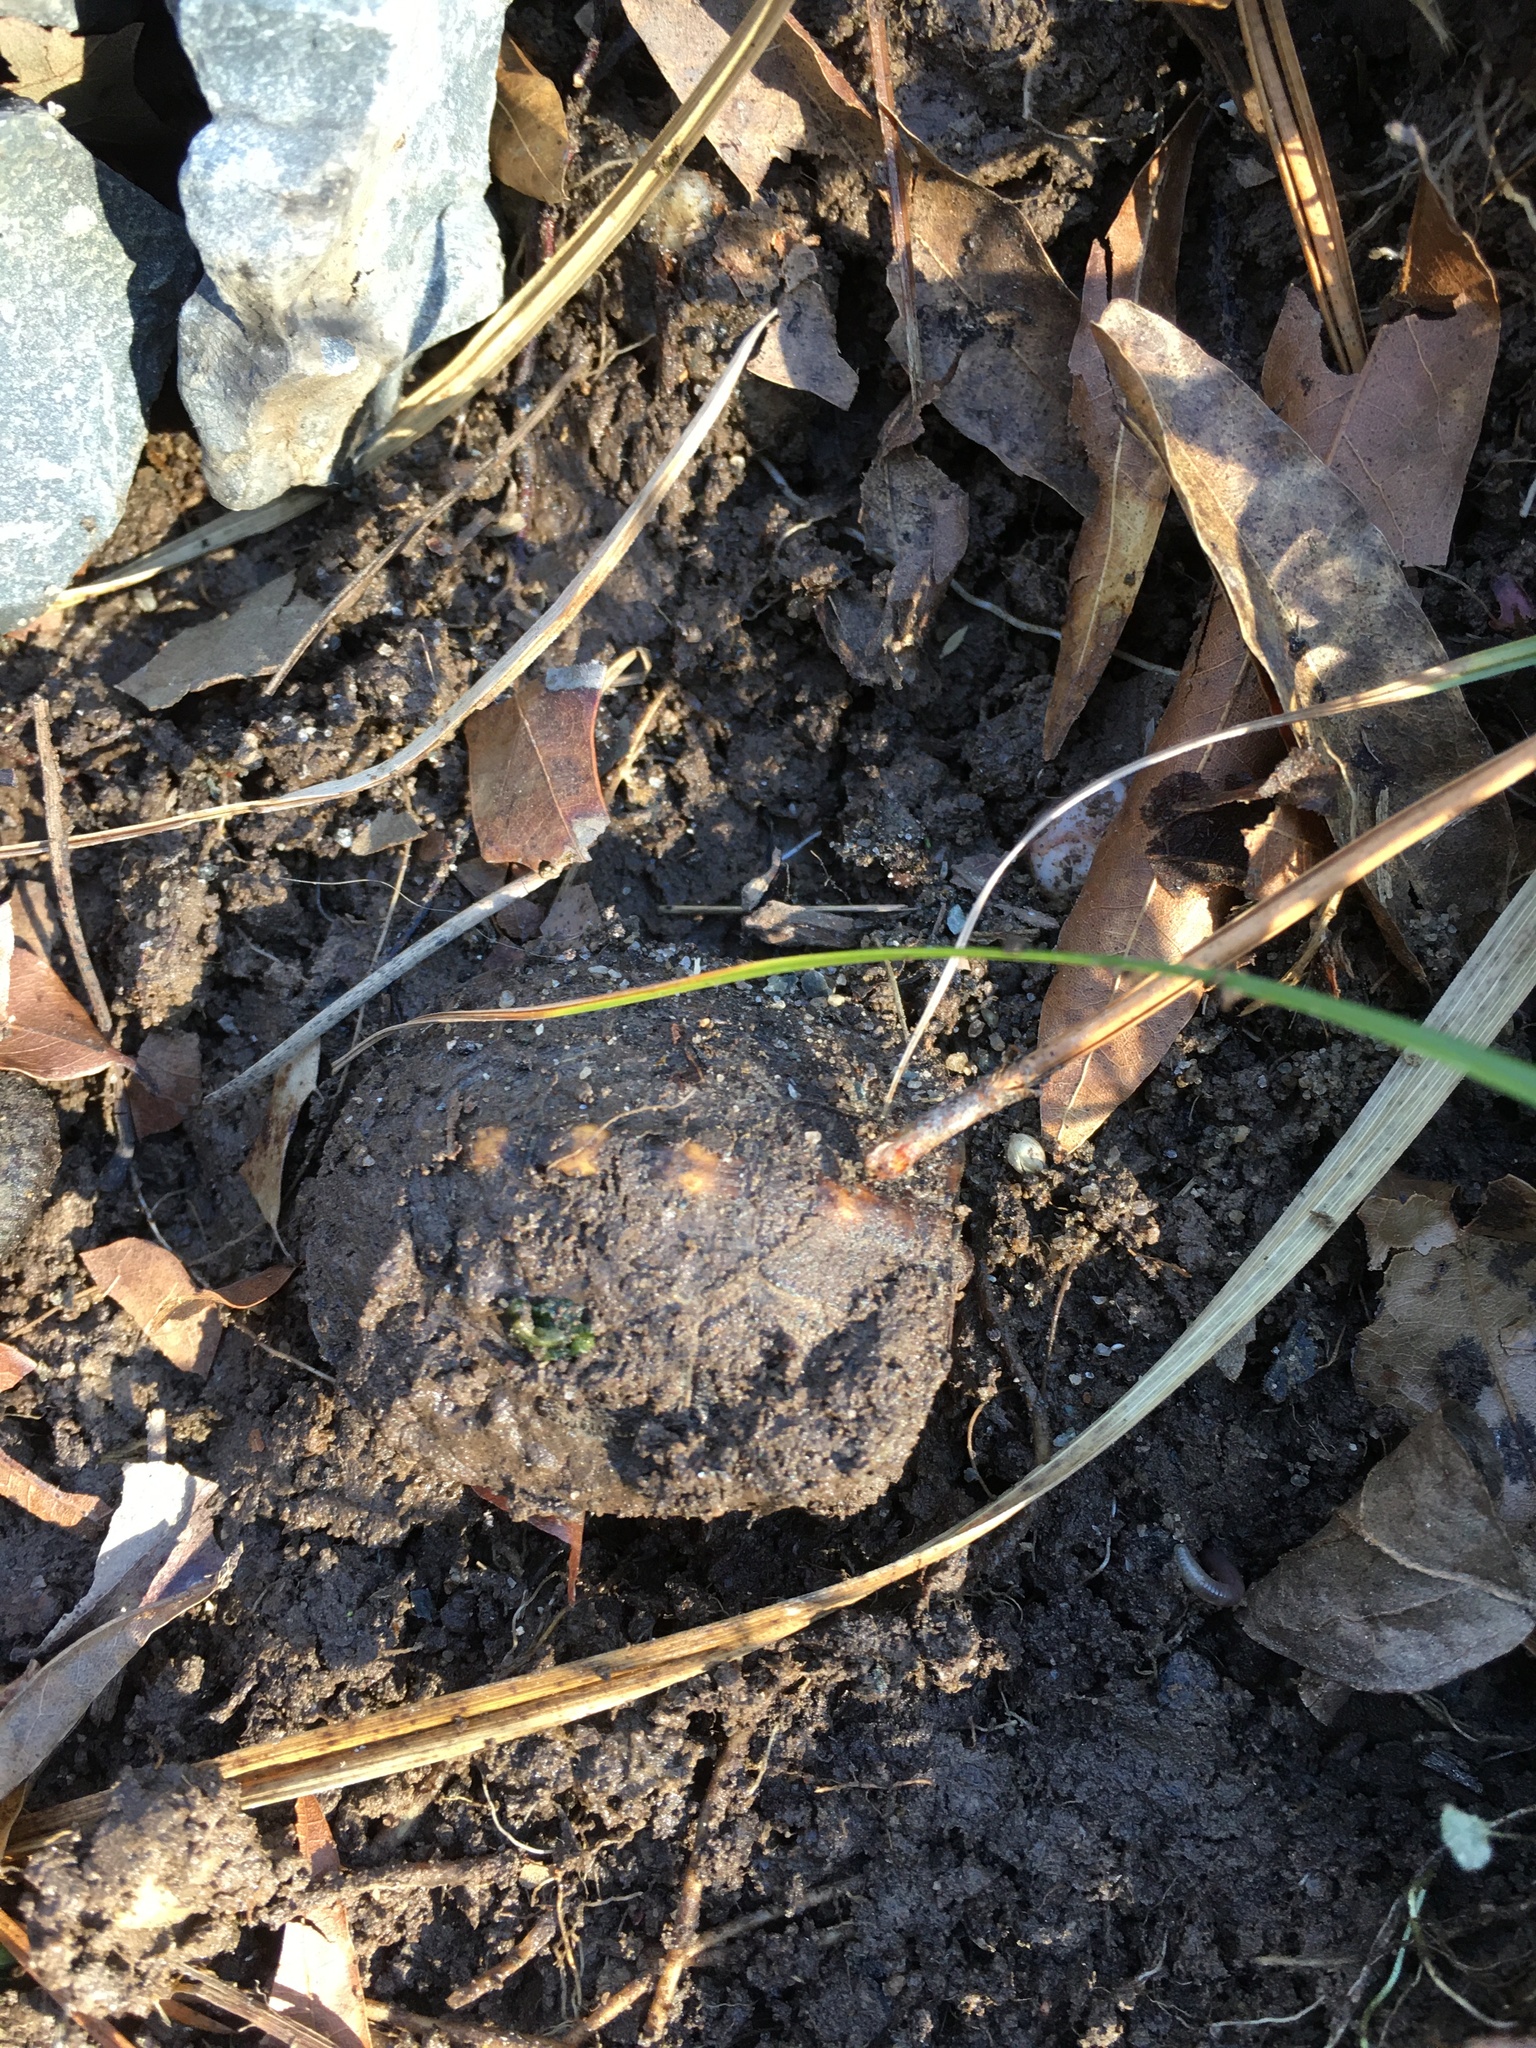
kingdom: Animalia
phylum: Chordata
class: Testudines
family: Emydidae
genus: Terrapene
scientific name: Terrapene carolina
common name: Common box turtle
